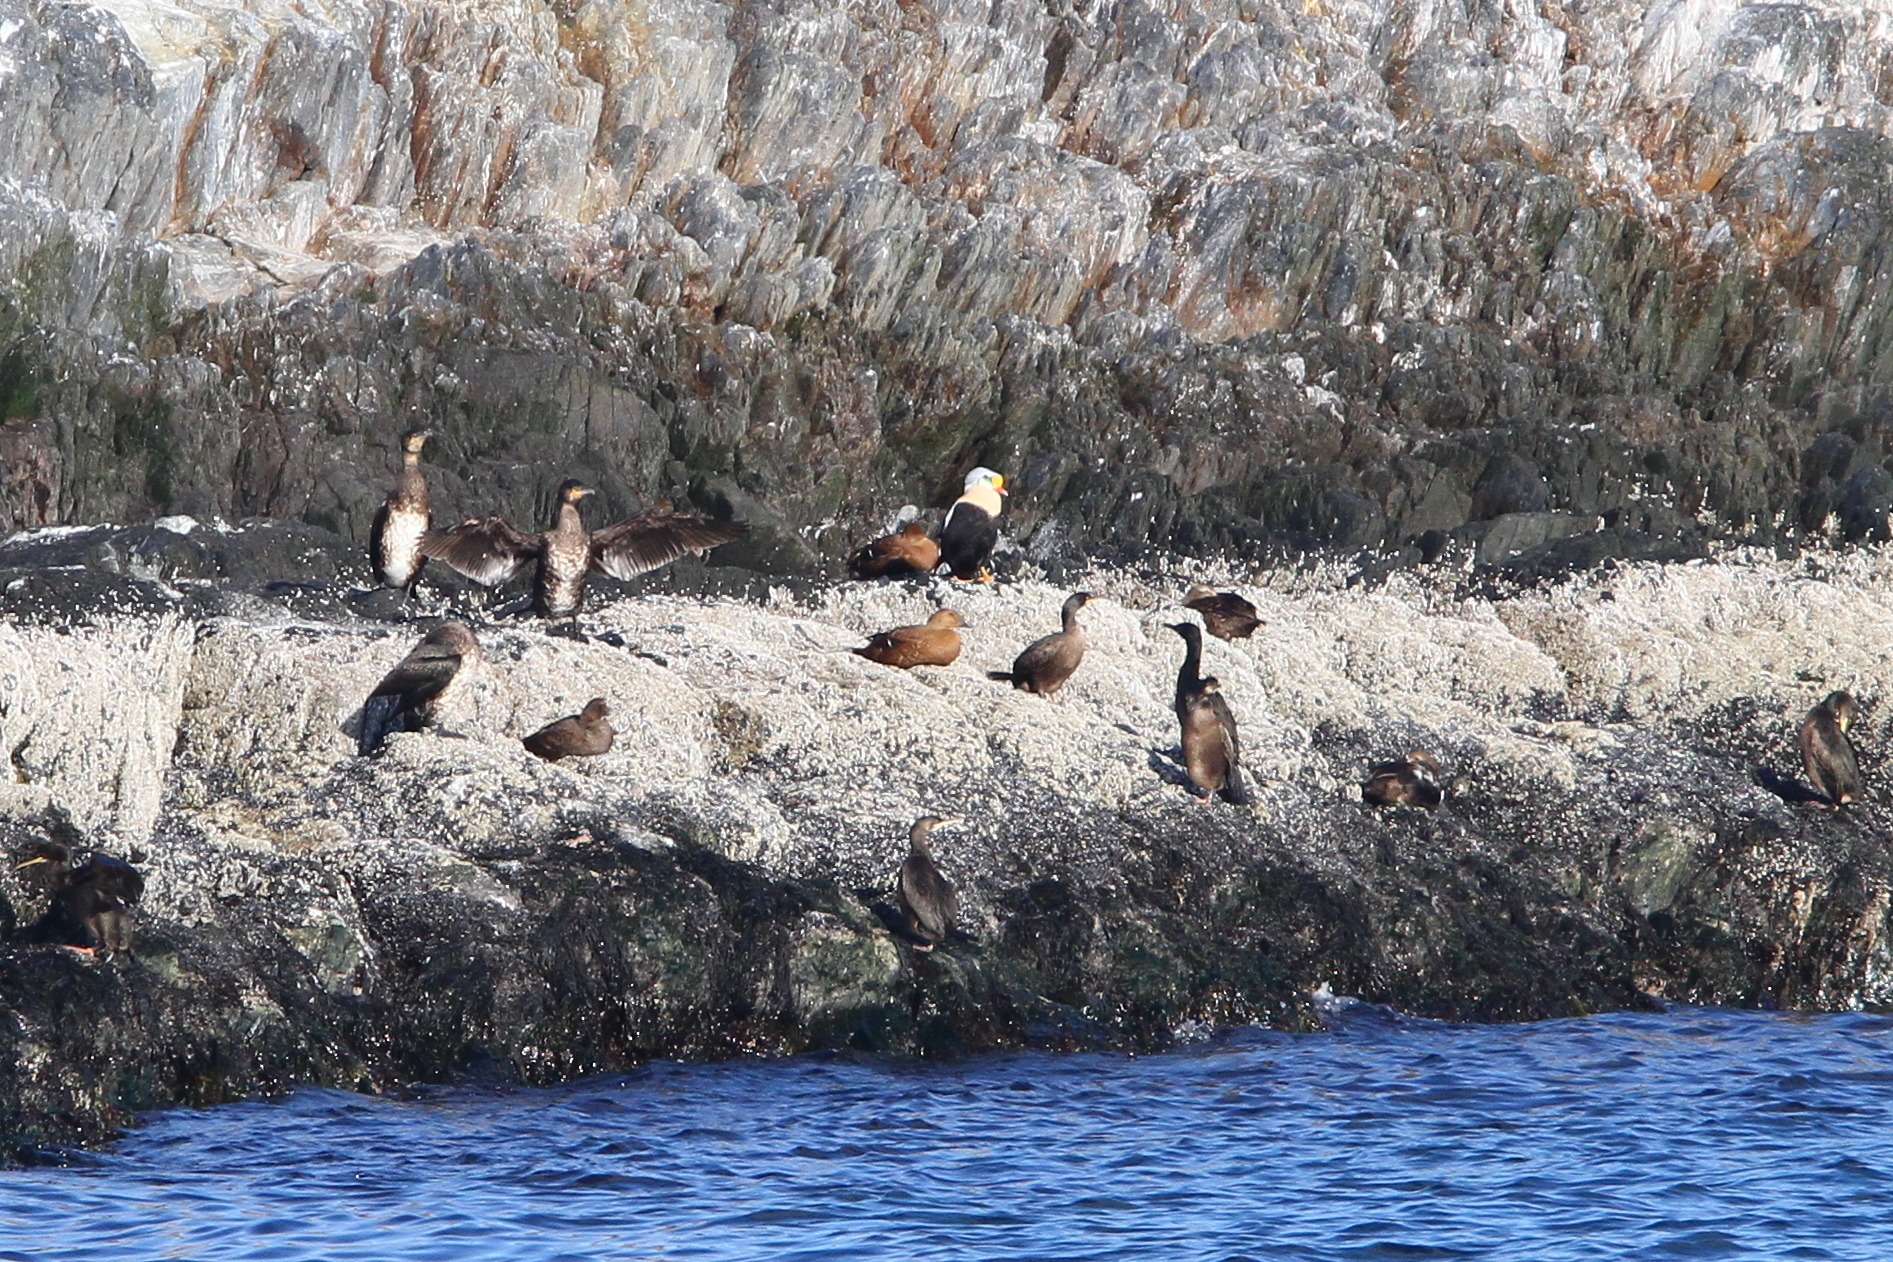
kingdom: Animalia
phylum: Chordata
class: Aves
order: Anseriformes
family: Anatidae
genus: Somateria
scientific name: Somateria spectabilis
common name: King eider
